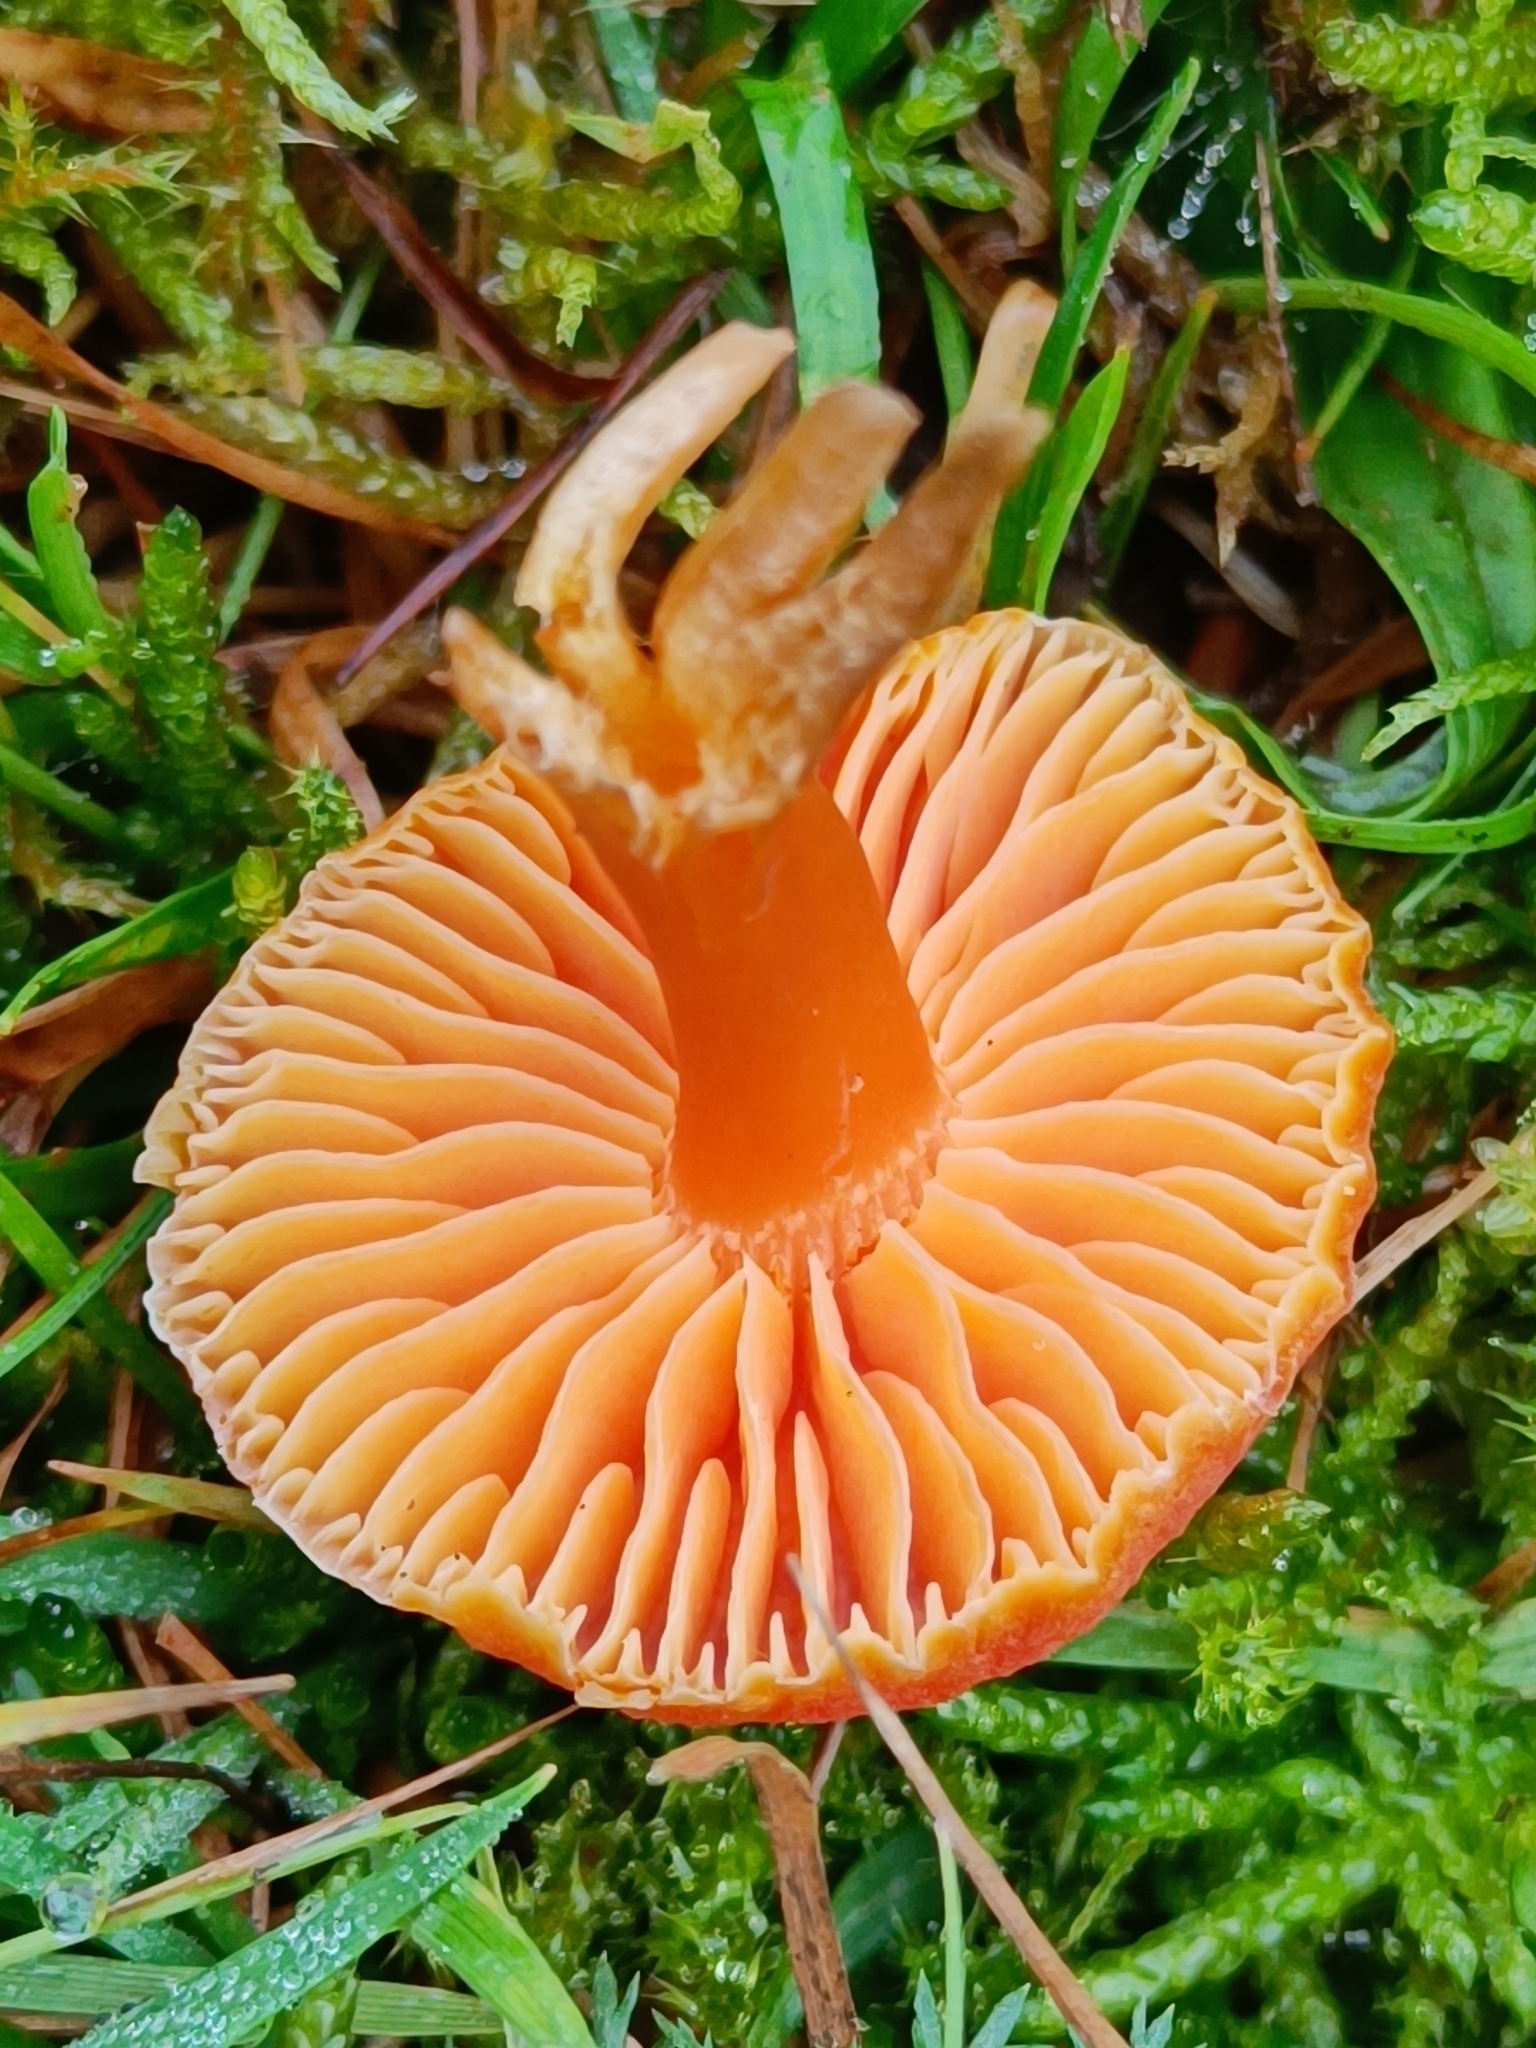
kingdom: Fungi
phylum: Basidiomycota
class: Agaricomycetes
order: Agaricales
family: Hygrophoraceae
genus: Hygrocybe
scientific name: Hygrocybe reidii
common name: Honey waxcap
